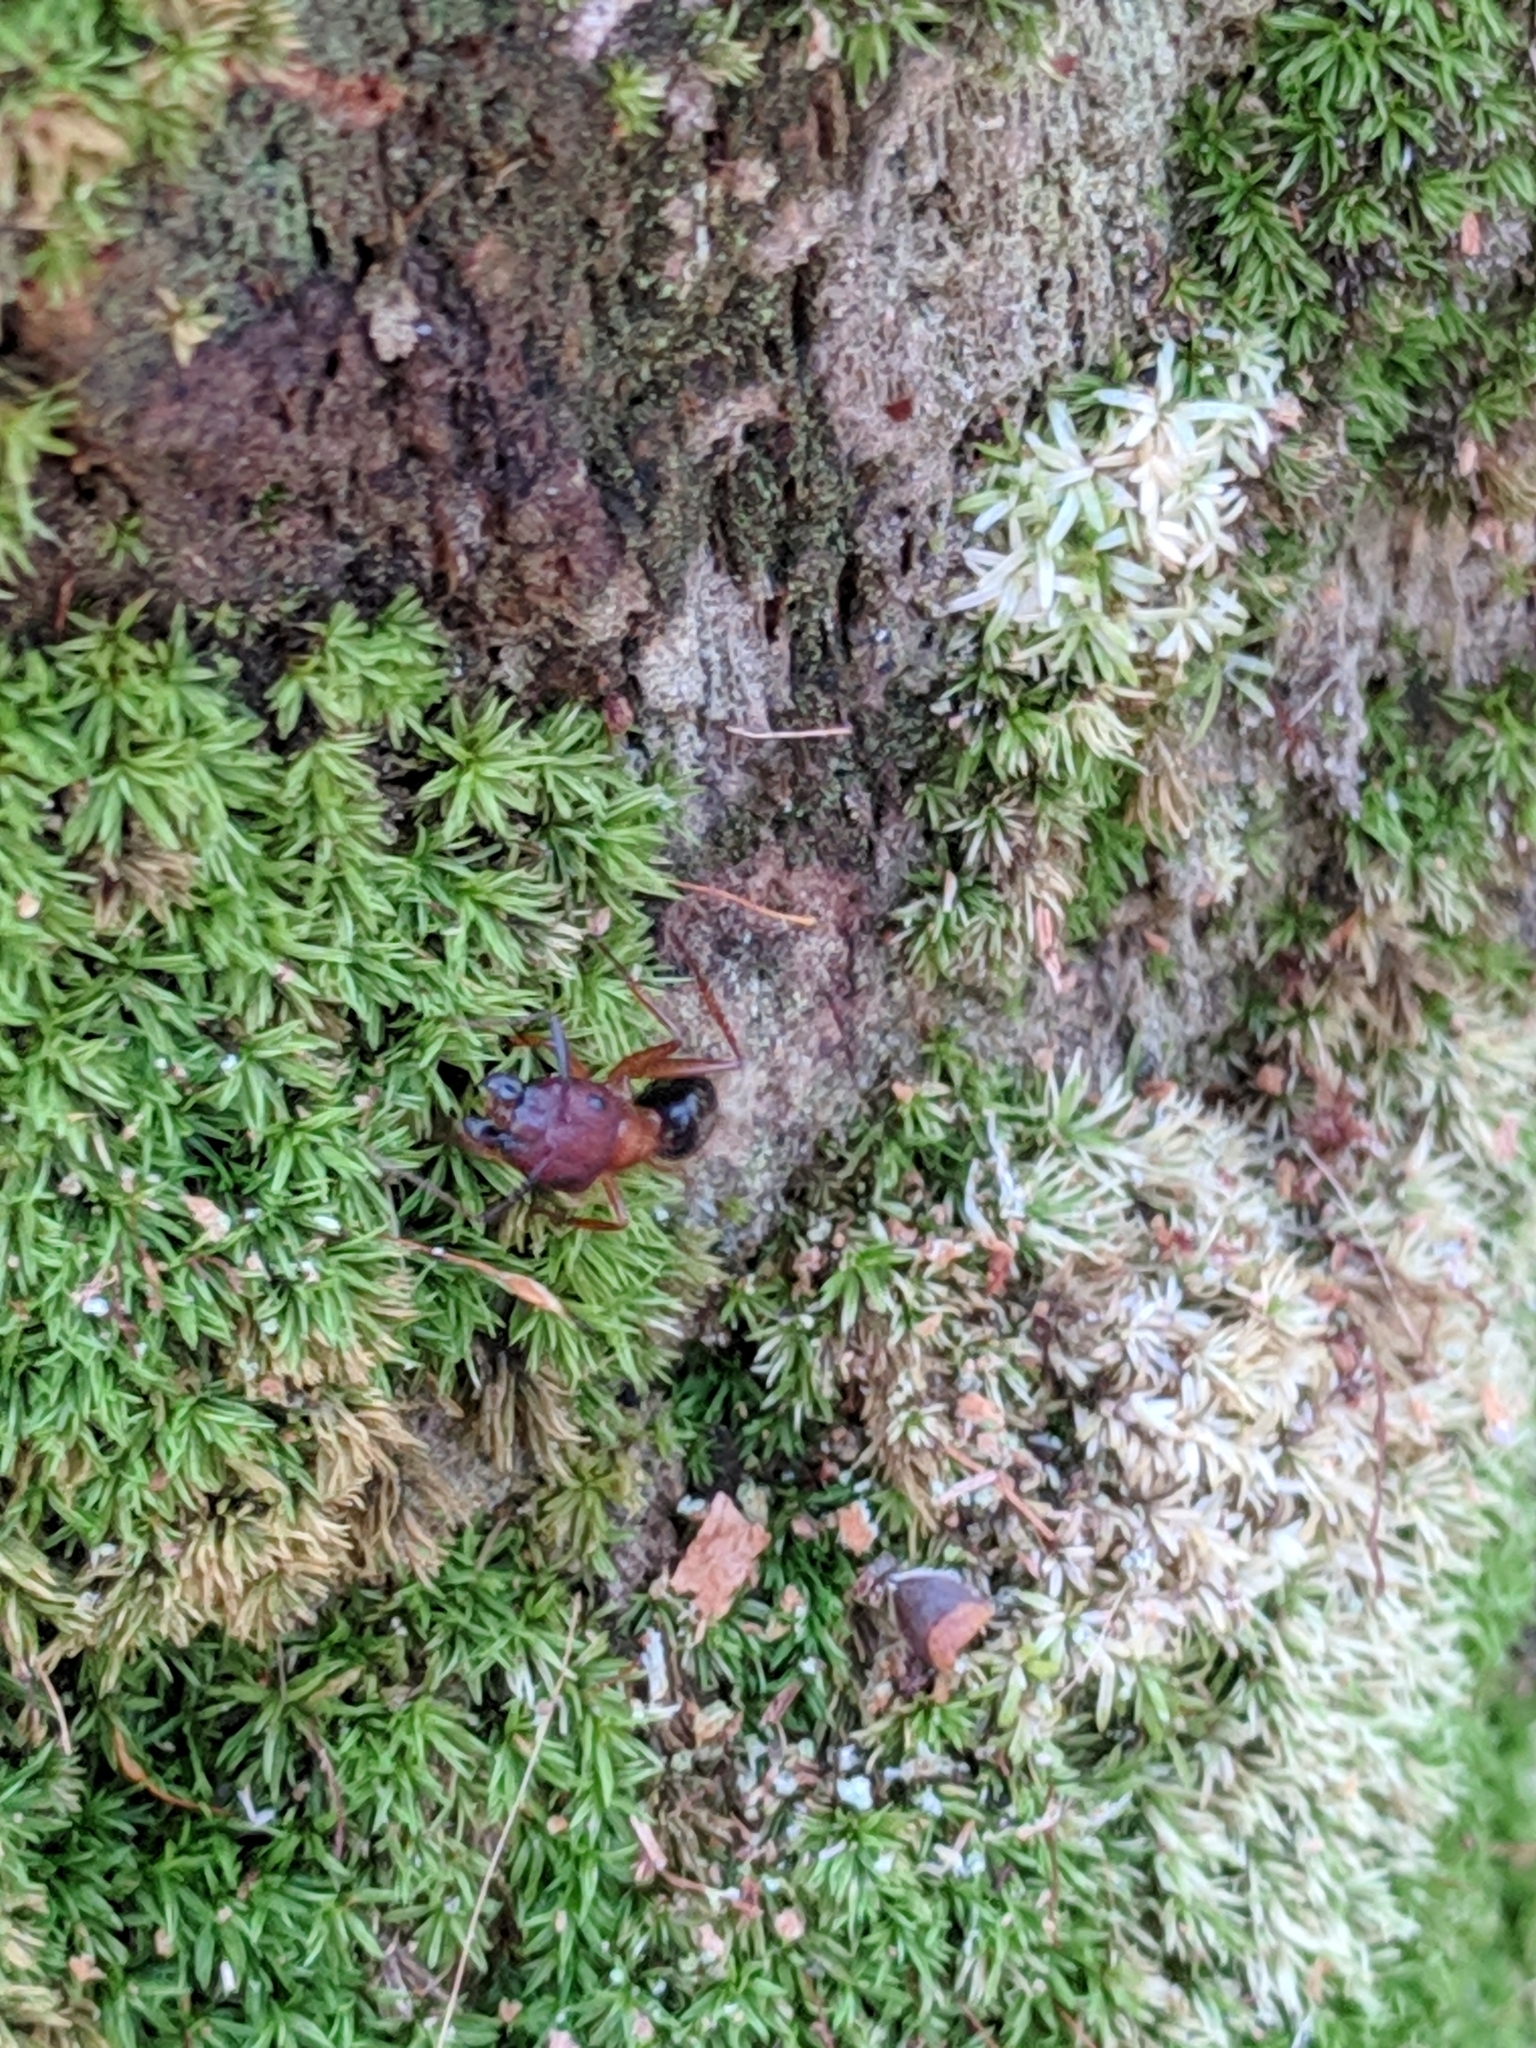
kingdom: Animalia
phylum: Arthropoda
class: Insecta
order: Hymenoptera
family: Formicidae
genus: Camponotus
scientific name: Camponotus floridanus
